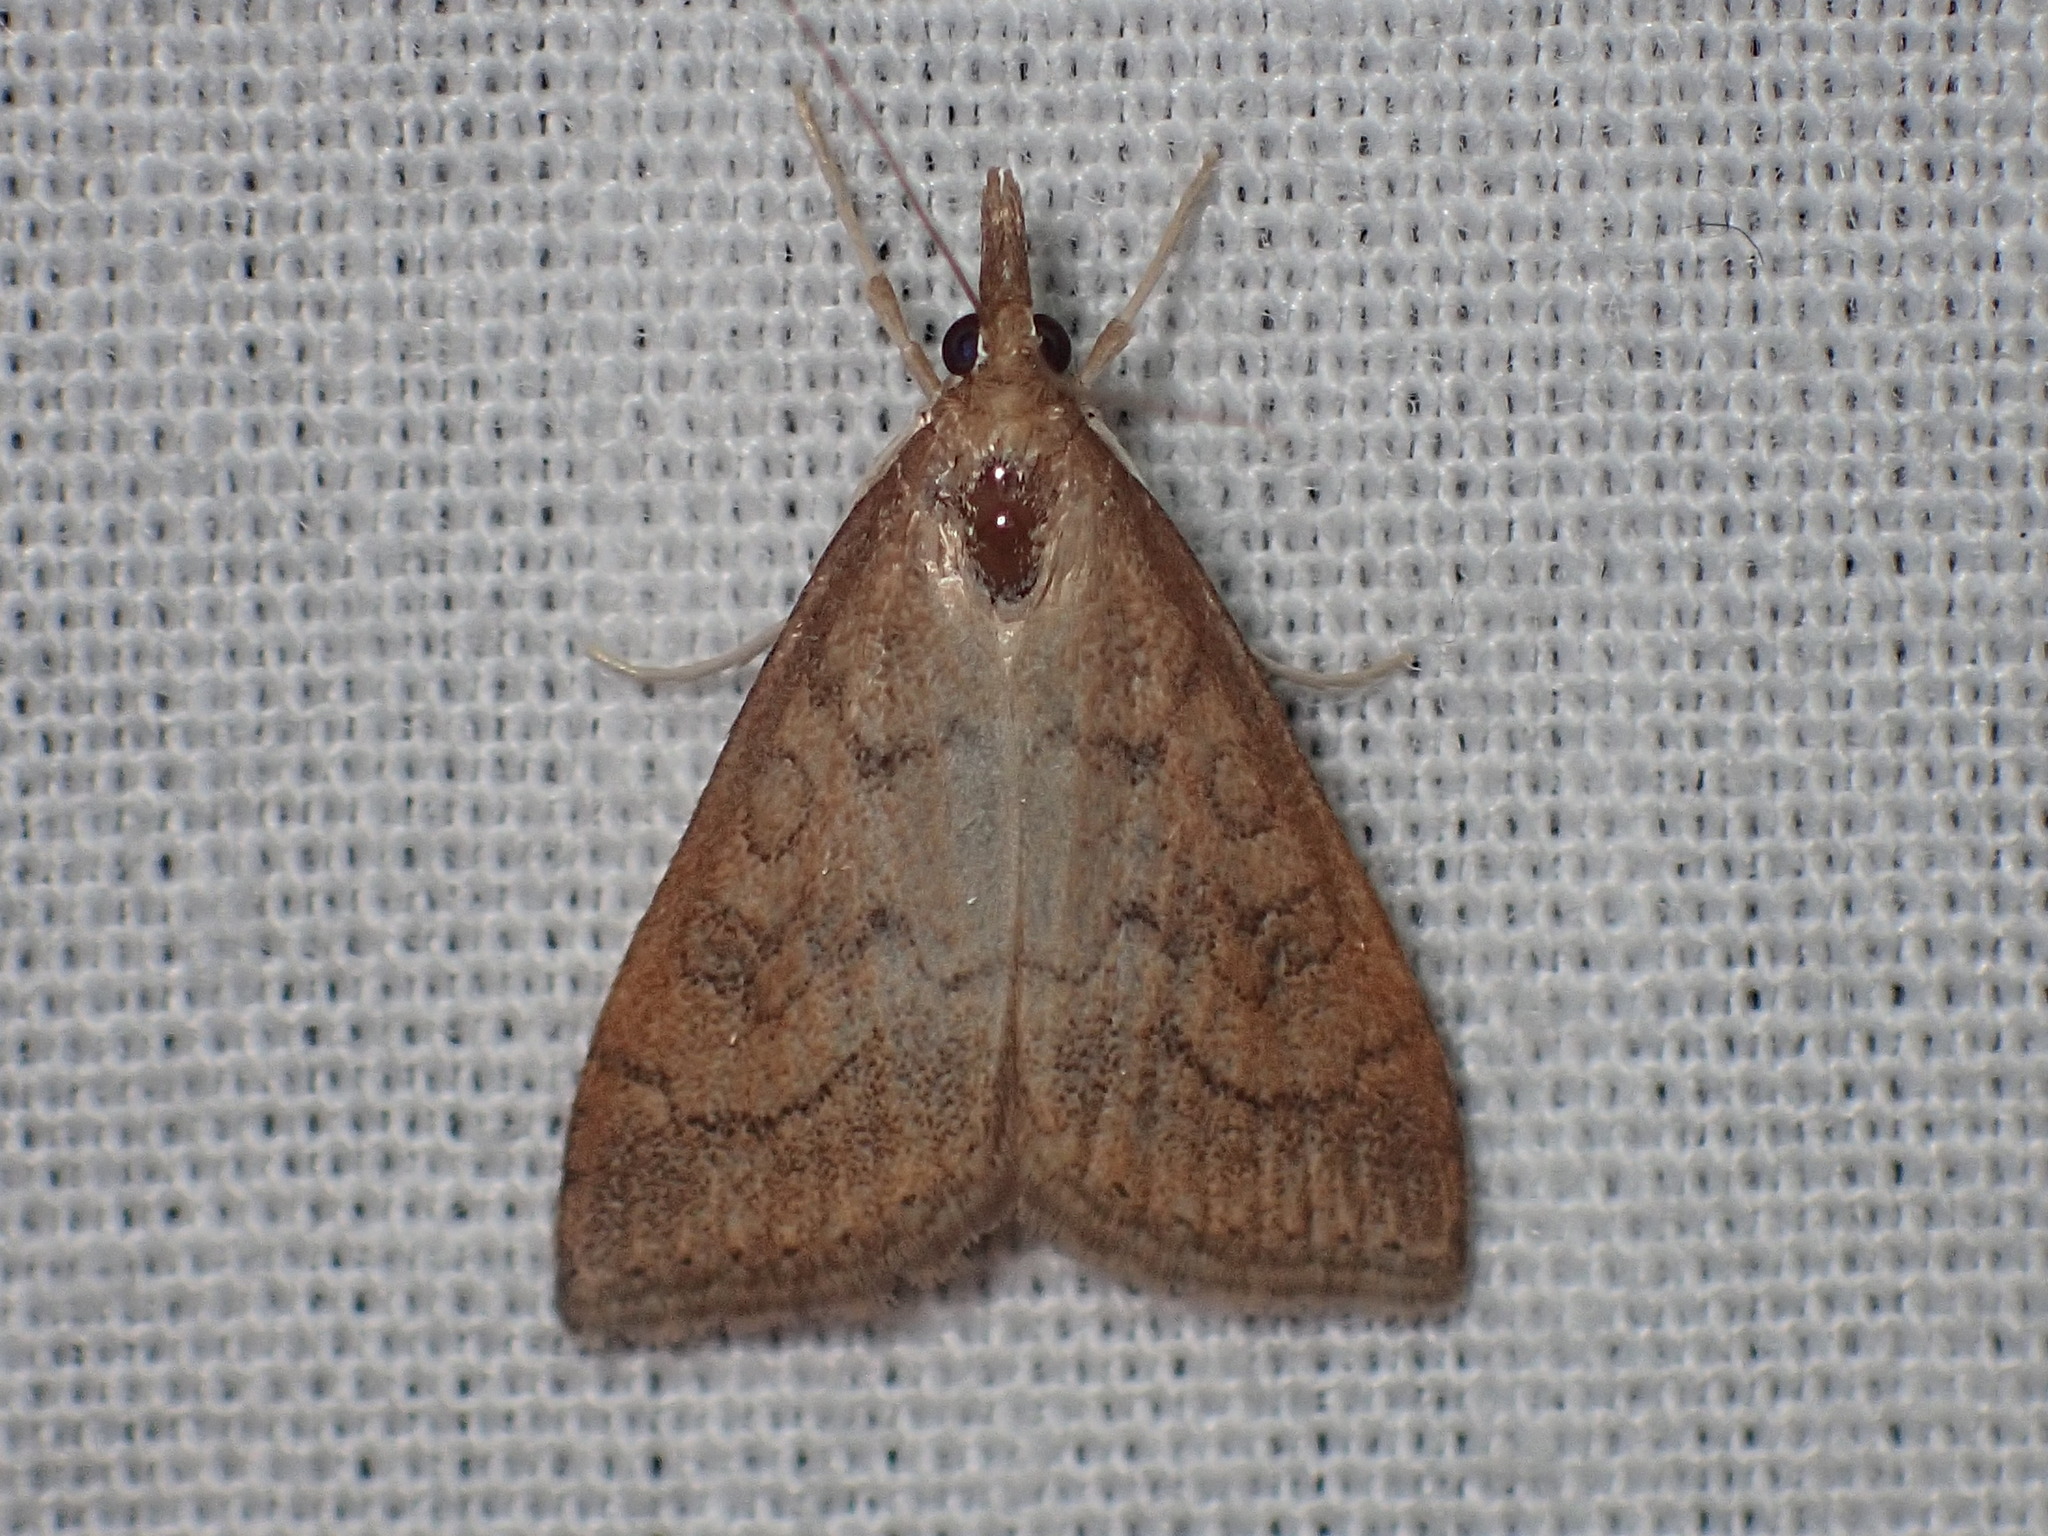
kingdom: Animalia
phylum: Arthropoda
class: Insecta
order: Lepidoptera
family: Crambidae
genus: Udea
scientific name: Udea rubigalis
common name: Celery leaftier moth
